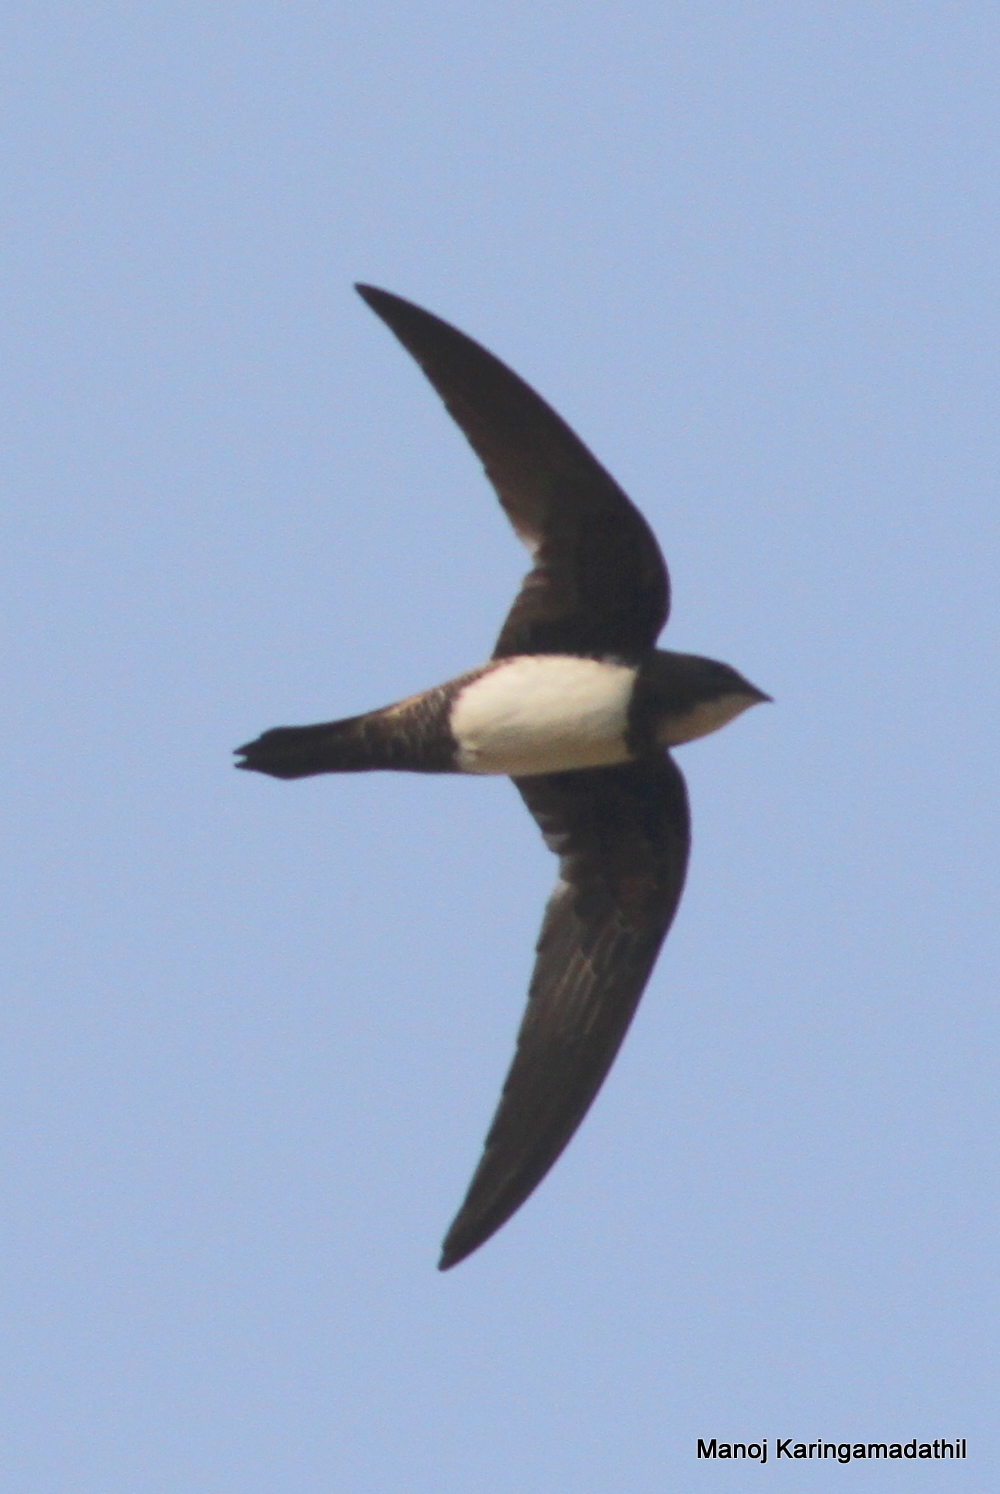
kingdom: Animalia
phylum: Chordata
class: Aves
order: Apodiformes
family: Apodidae
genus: Tachymarptis
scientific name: Tachymarptis melba
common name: Alpine swift
